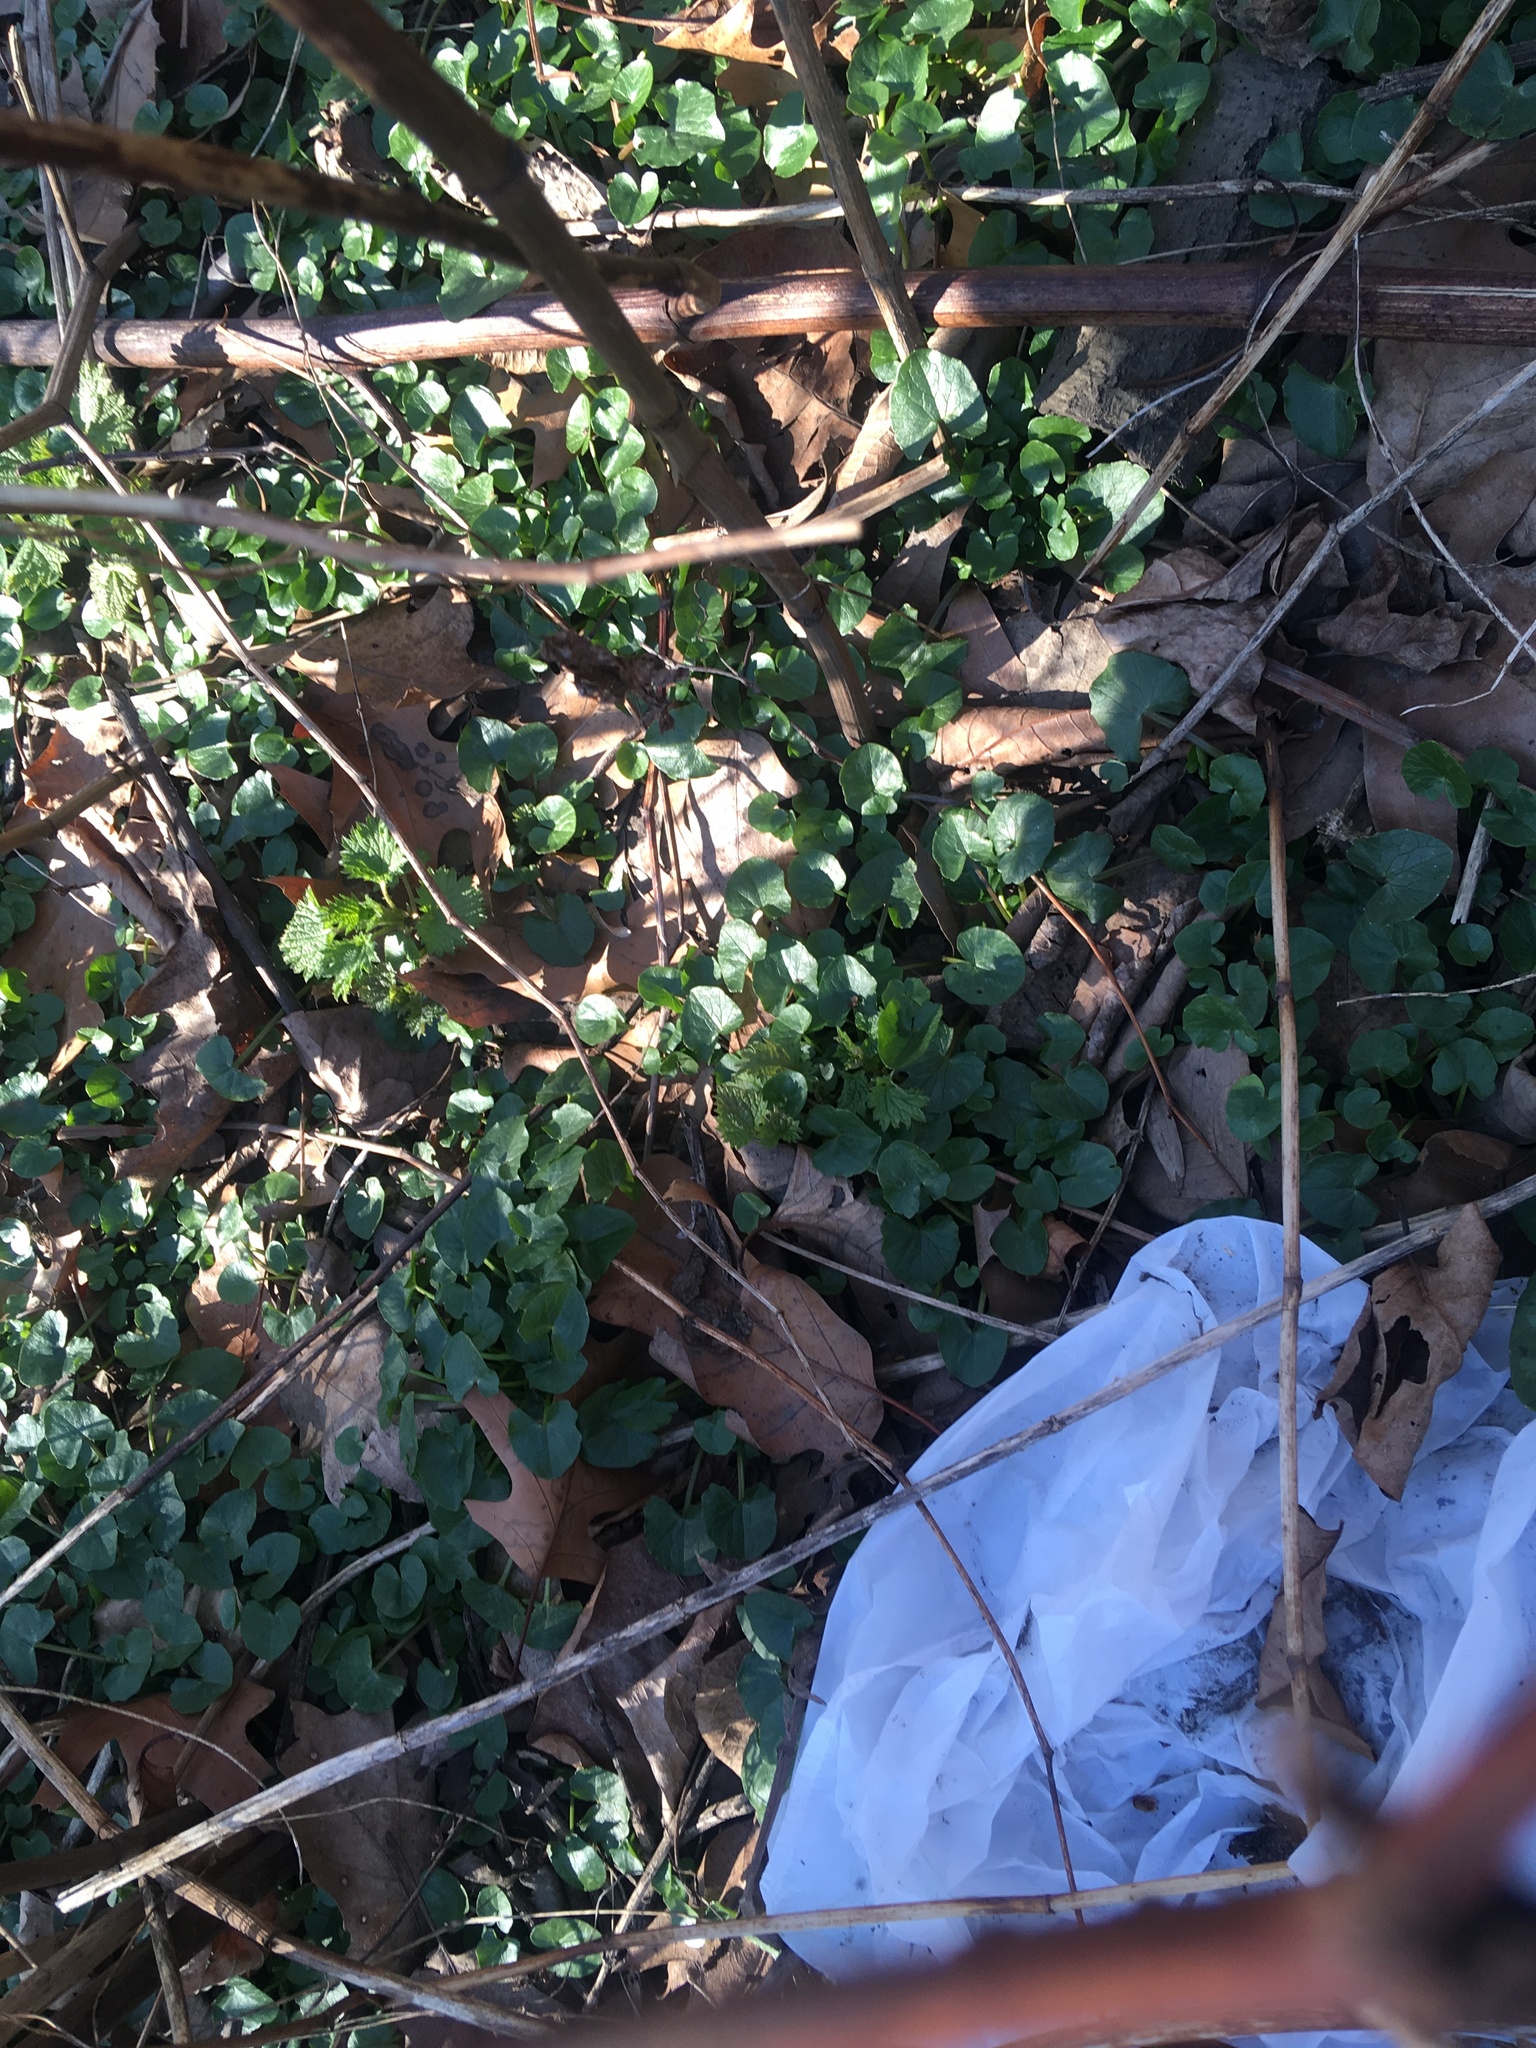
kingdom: Plantae
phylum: Tracheophyta
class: Magnoliopsida
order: Ranunculales
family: Ranunculaceae
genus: Ficaria
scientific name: Ficaria verna
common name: Lesser celandine
